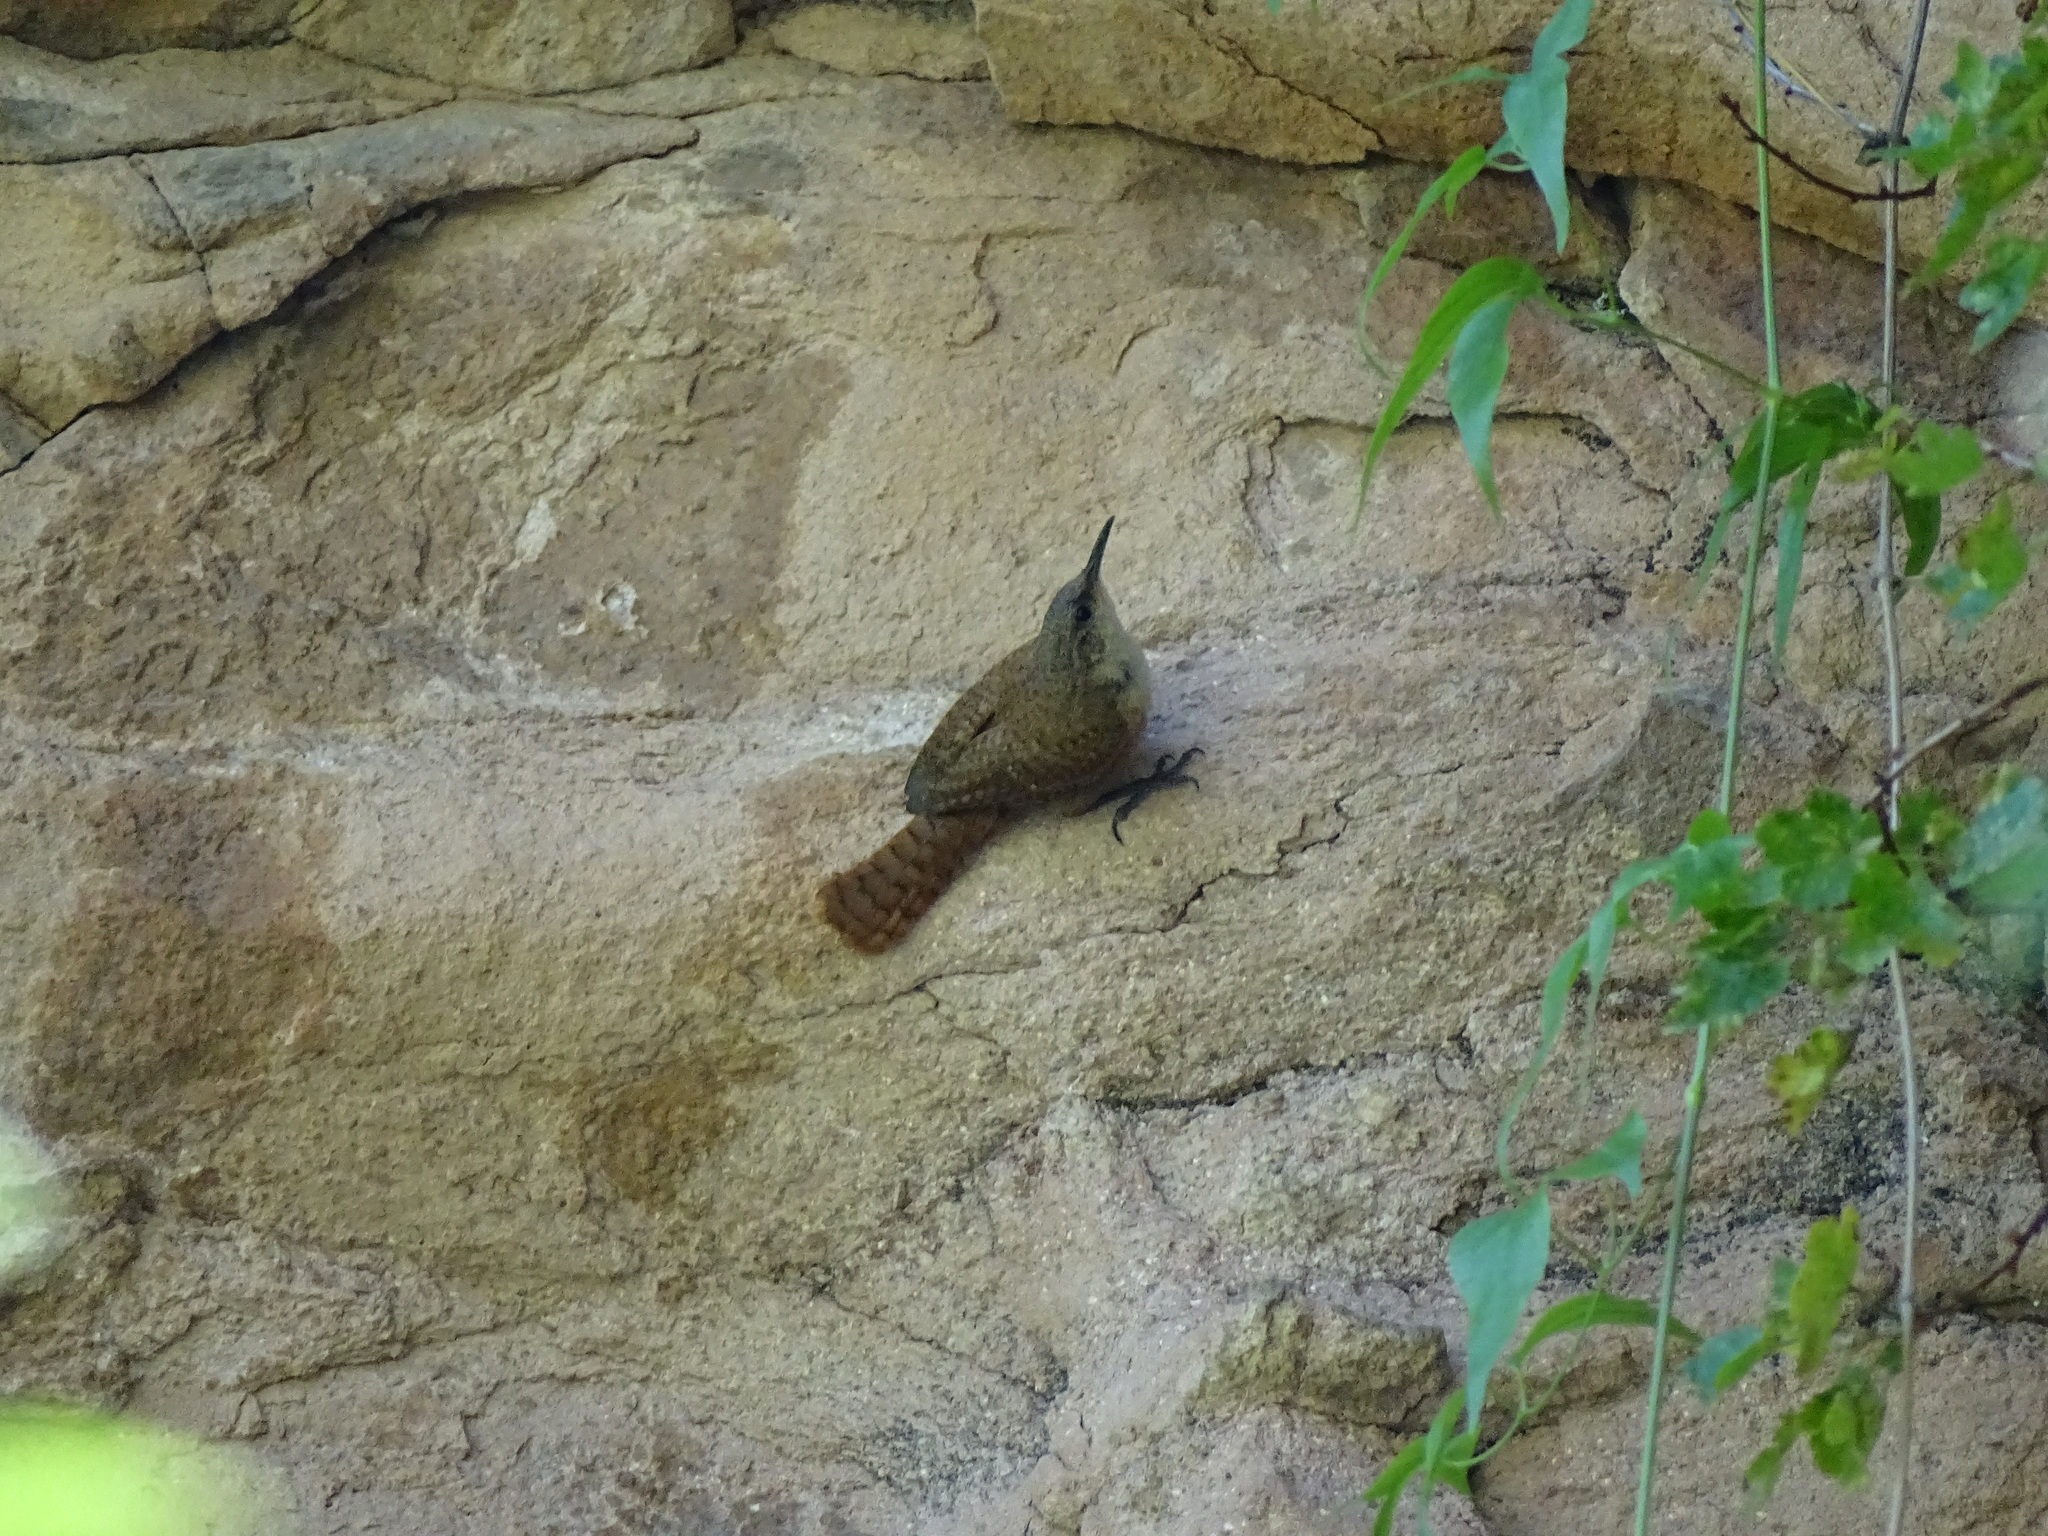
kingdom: Animalia
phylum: Chordata
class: Aves
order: Passeriformes
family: Troglodytidae
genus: Catherpes
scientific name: Catherpes mexicanus
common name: Canyon wren
